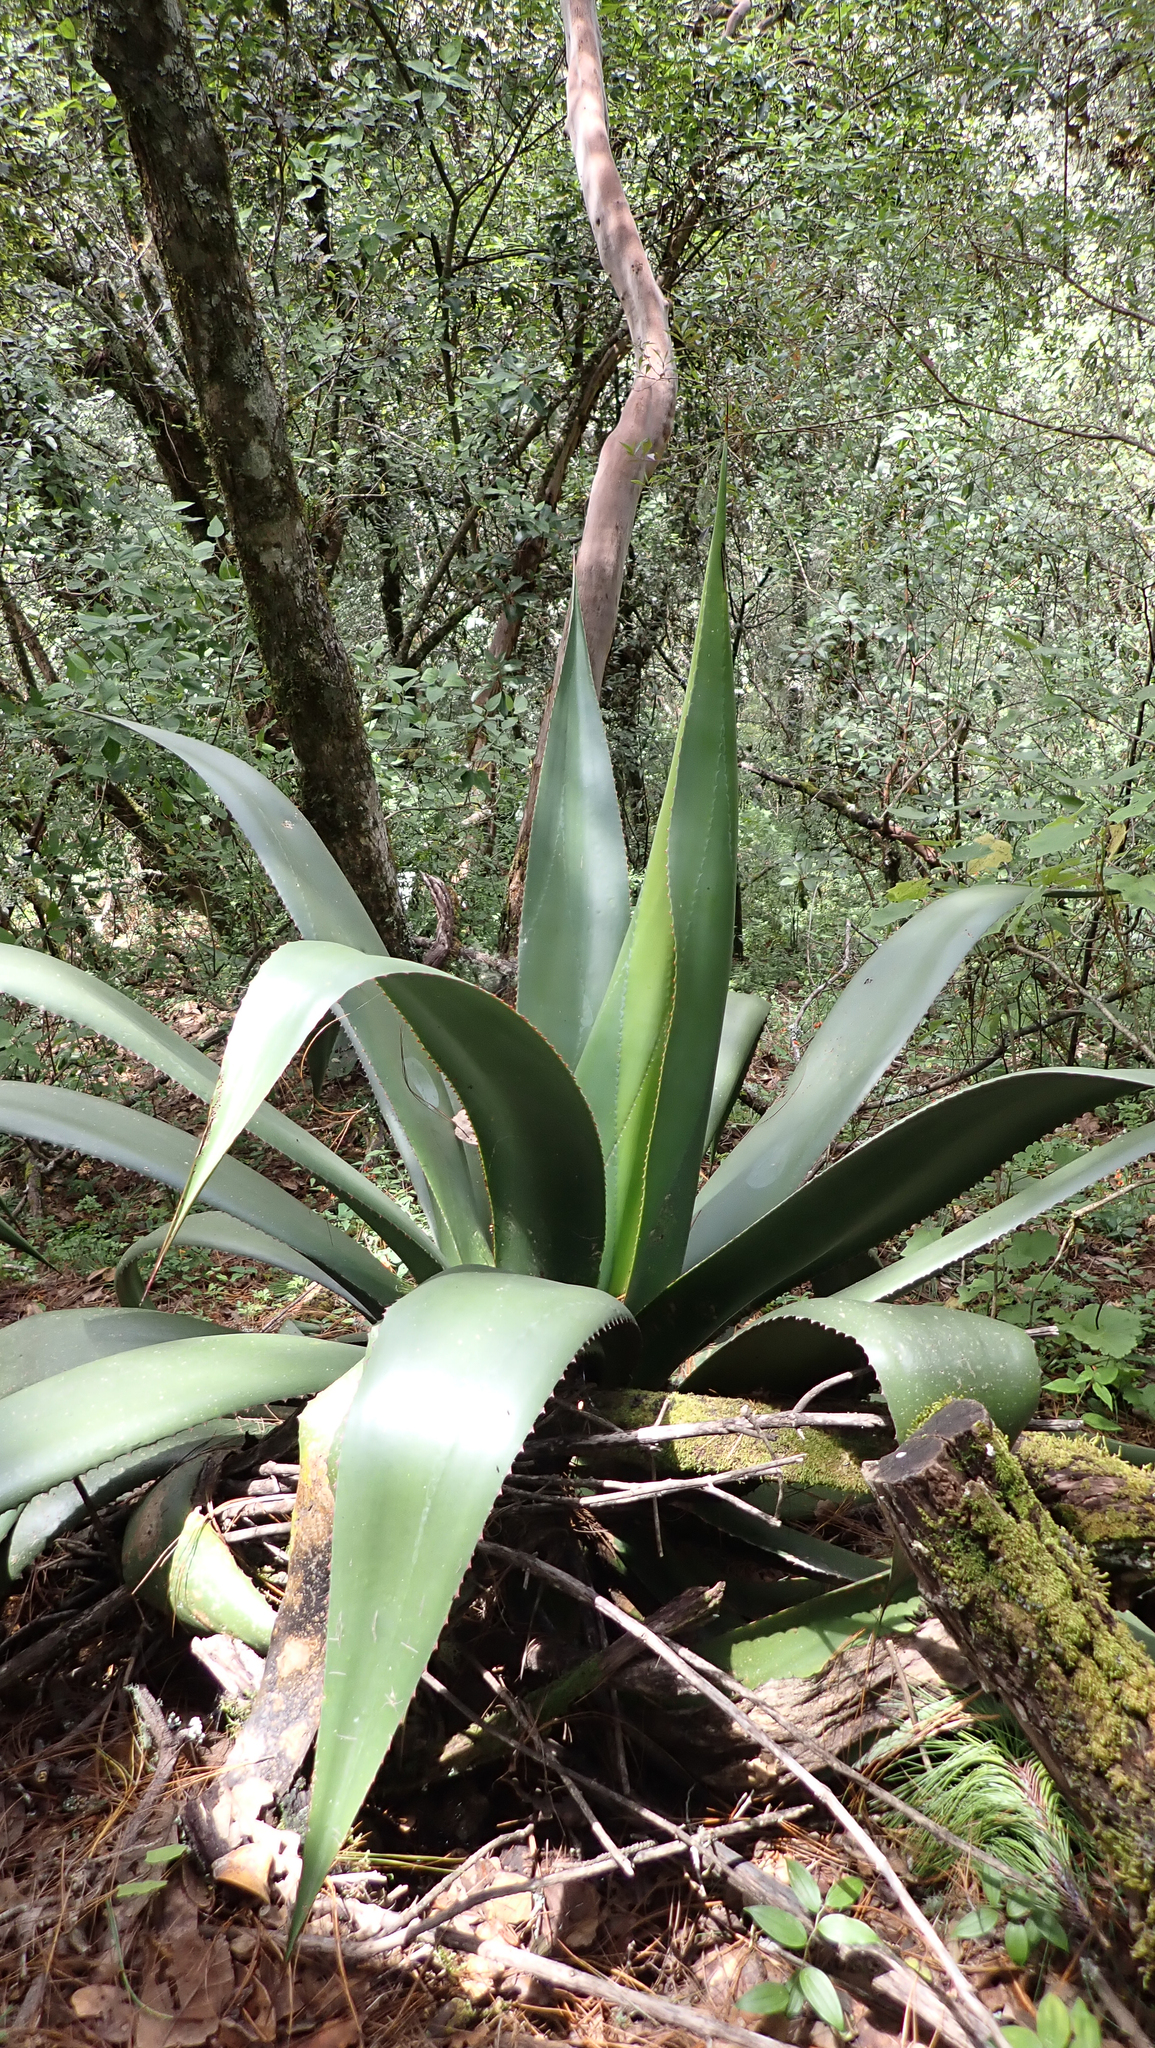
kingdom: Plantae
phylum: Tracheophyta
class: Liliopsida
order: Asparagales
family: Asparagaceae
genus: Agave
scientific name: Agave atrovirens
